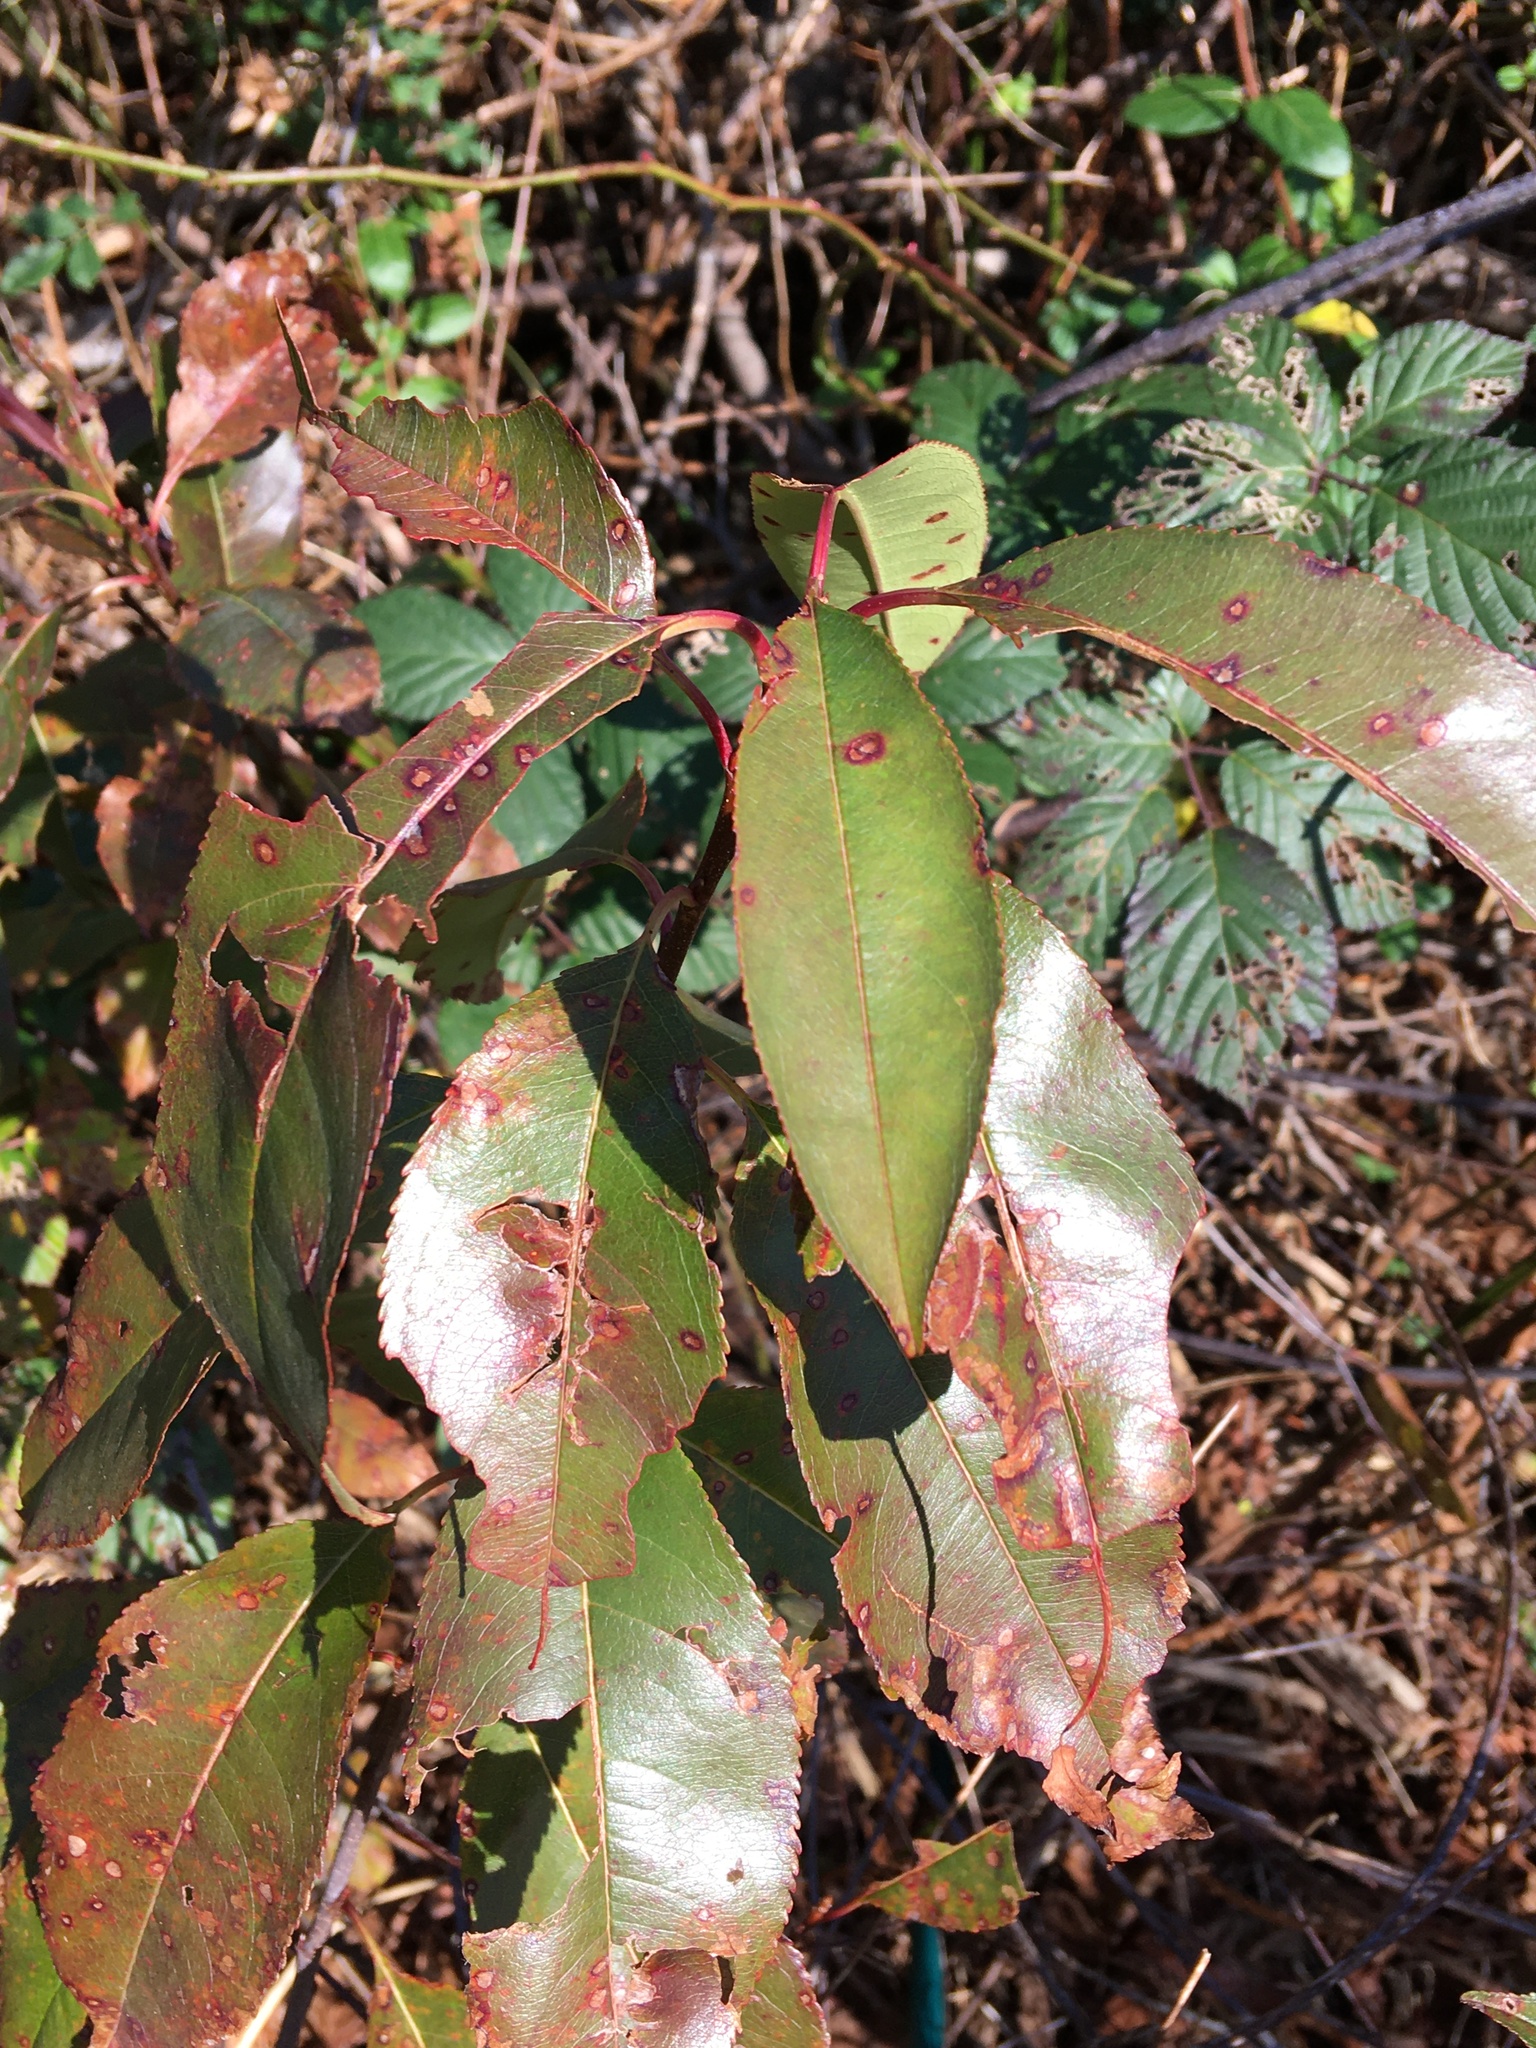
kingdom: Plantae
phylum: Tracheophyta
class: Magnoliopsida
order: Rosales
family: Rosaceae
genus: Prunus
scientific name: Prunus serotina
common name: Black cherry
